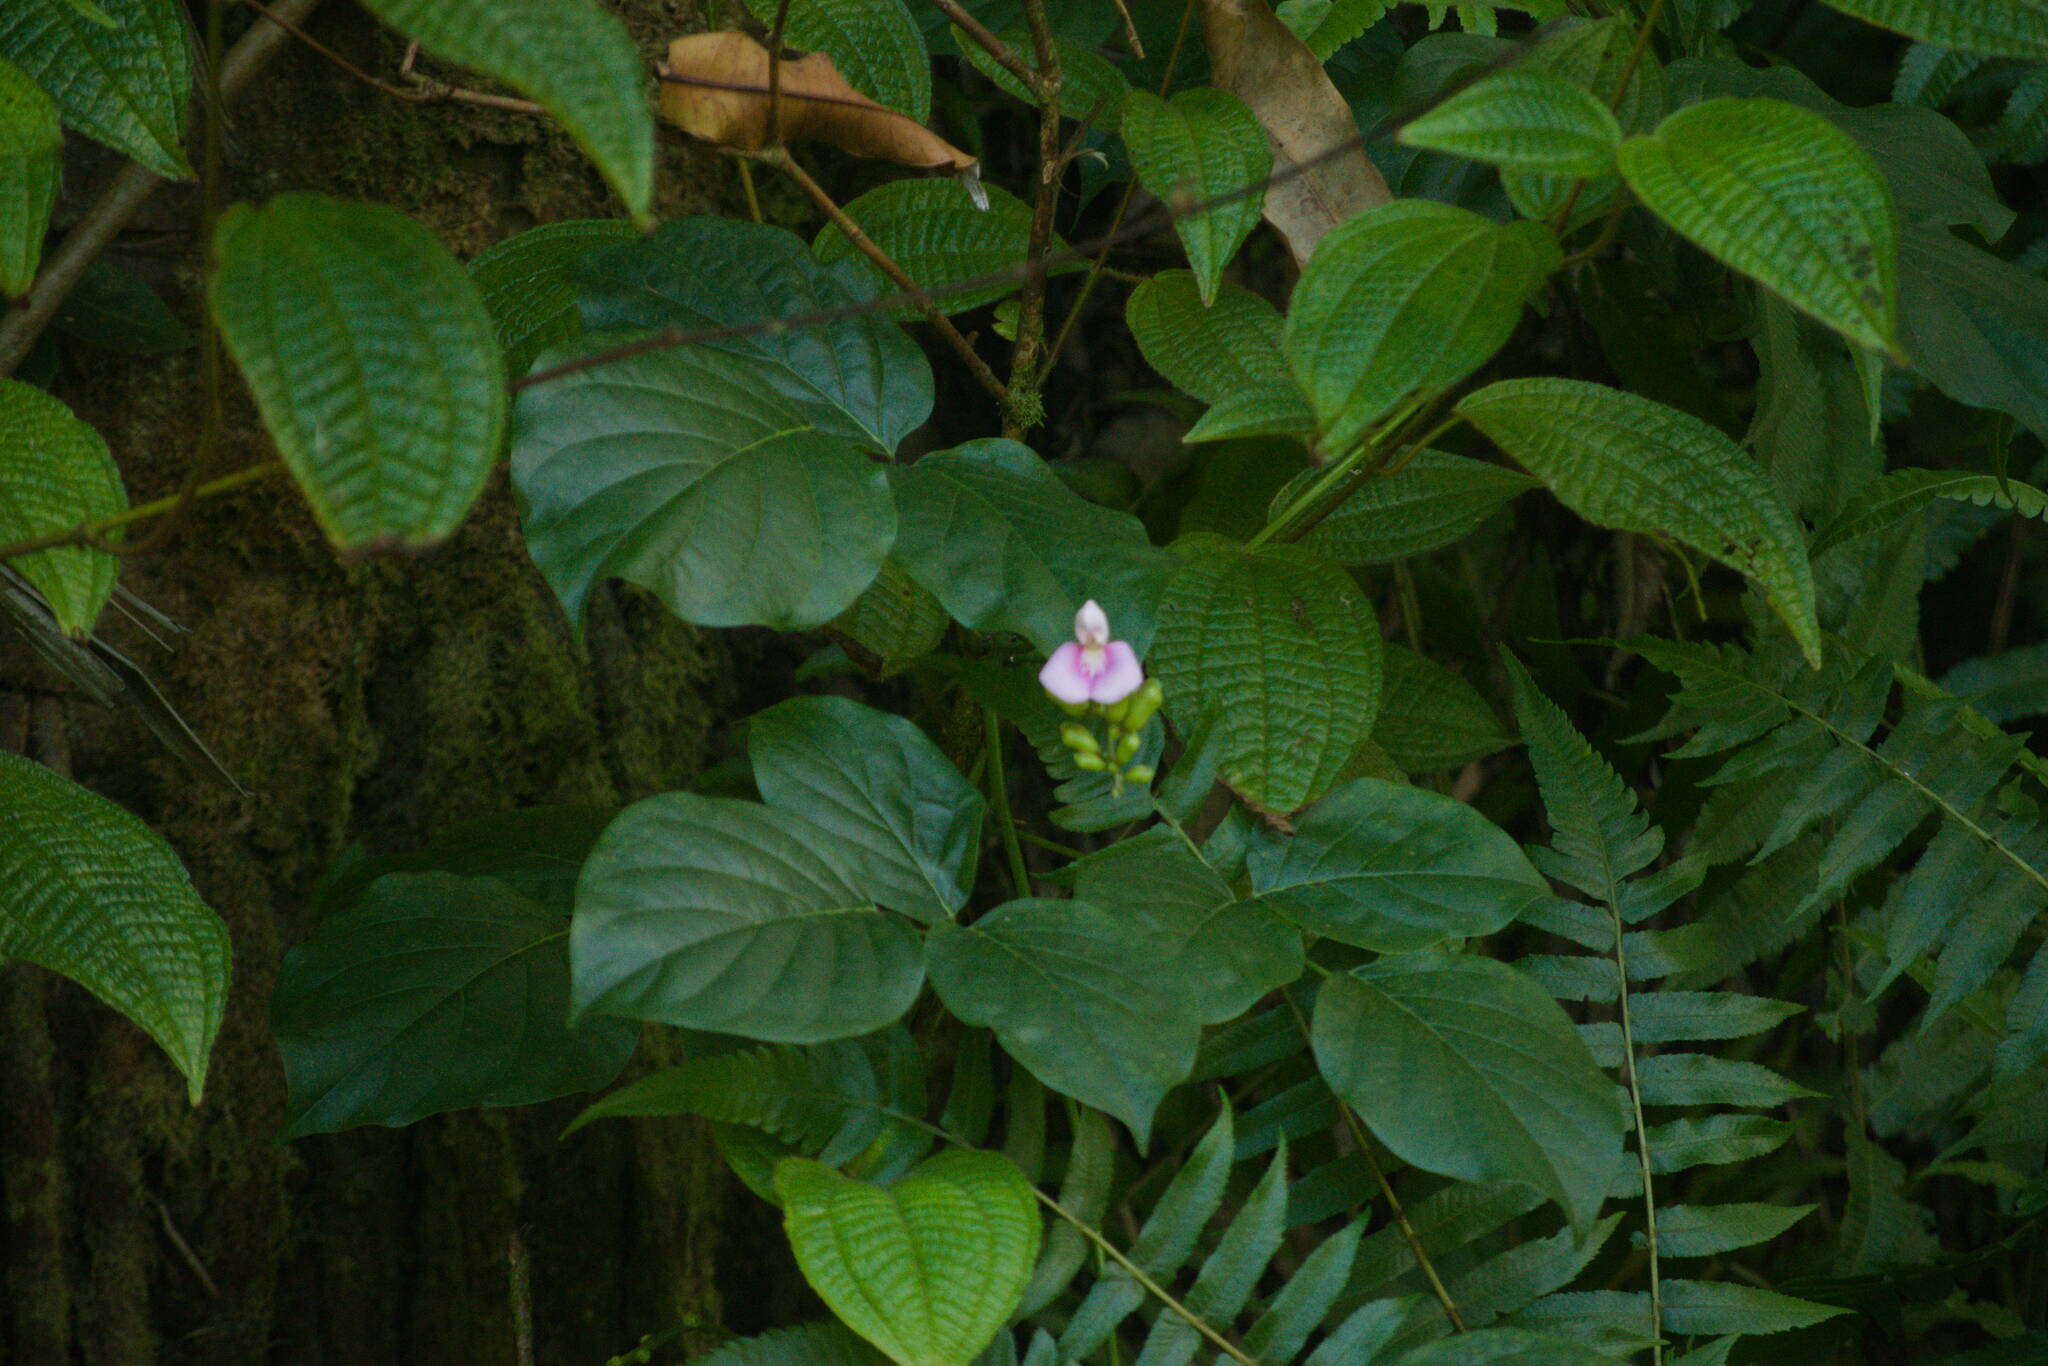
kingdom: Plantae
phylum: Tracheophyta
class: Magnoliopsida
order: Fabales
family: Fabaceae
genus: Canavalia
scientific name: Canavalia cathartica
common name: Maunaloa
